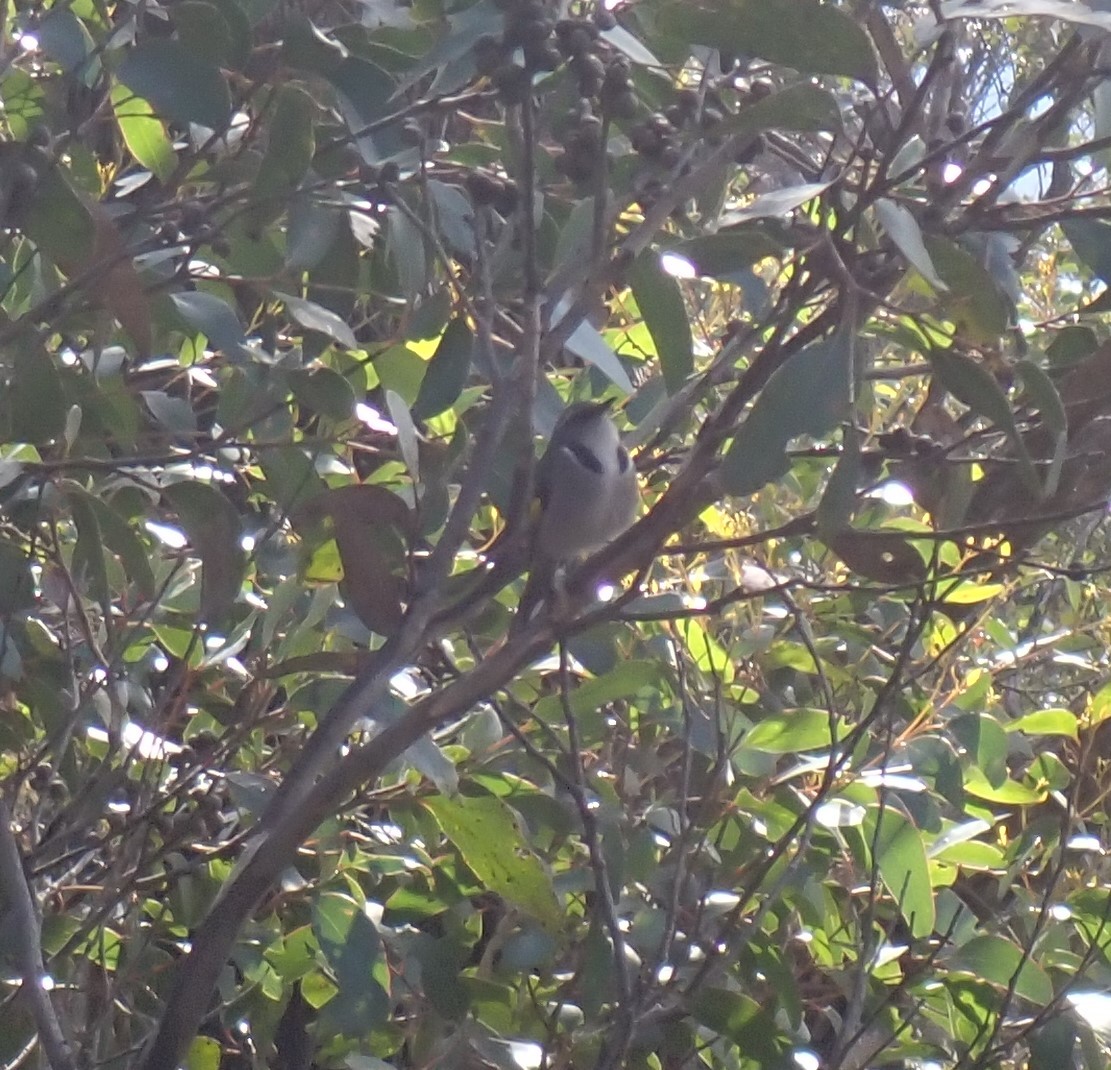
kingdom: Animalia
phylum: Chordata
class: Aves
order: Passeriformes
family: Meliphagidae
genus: Phylidonyris
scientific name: Phylidonyris pyrrhopterus
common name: Crescent honeyeater
